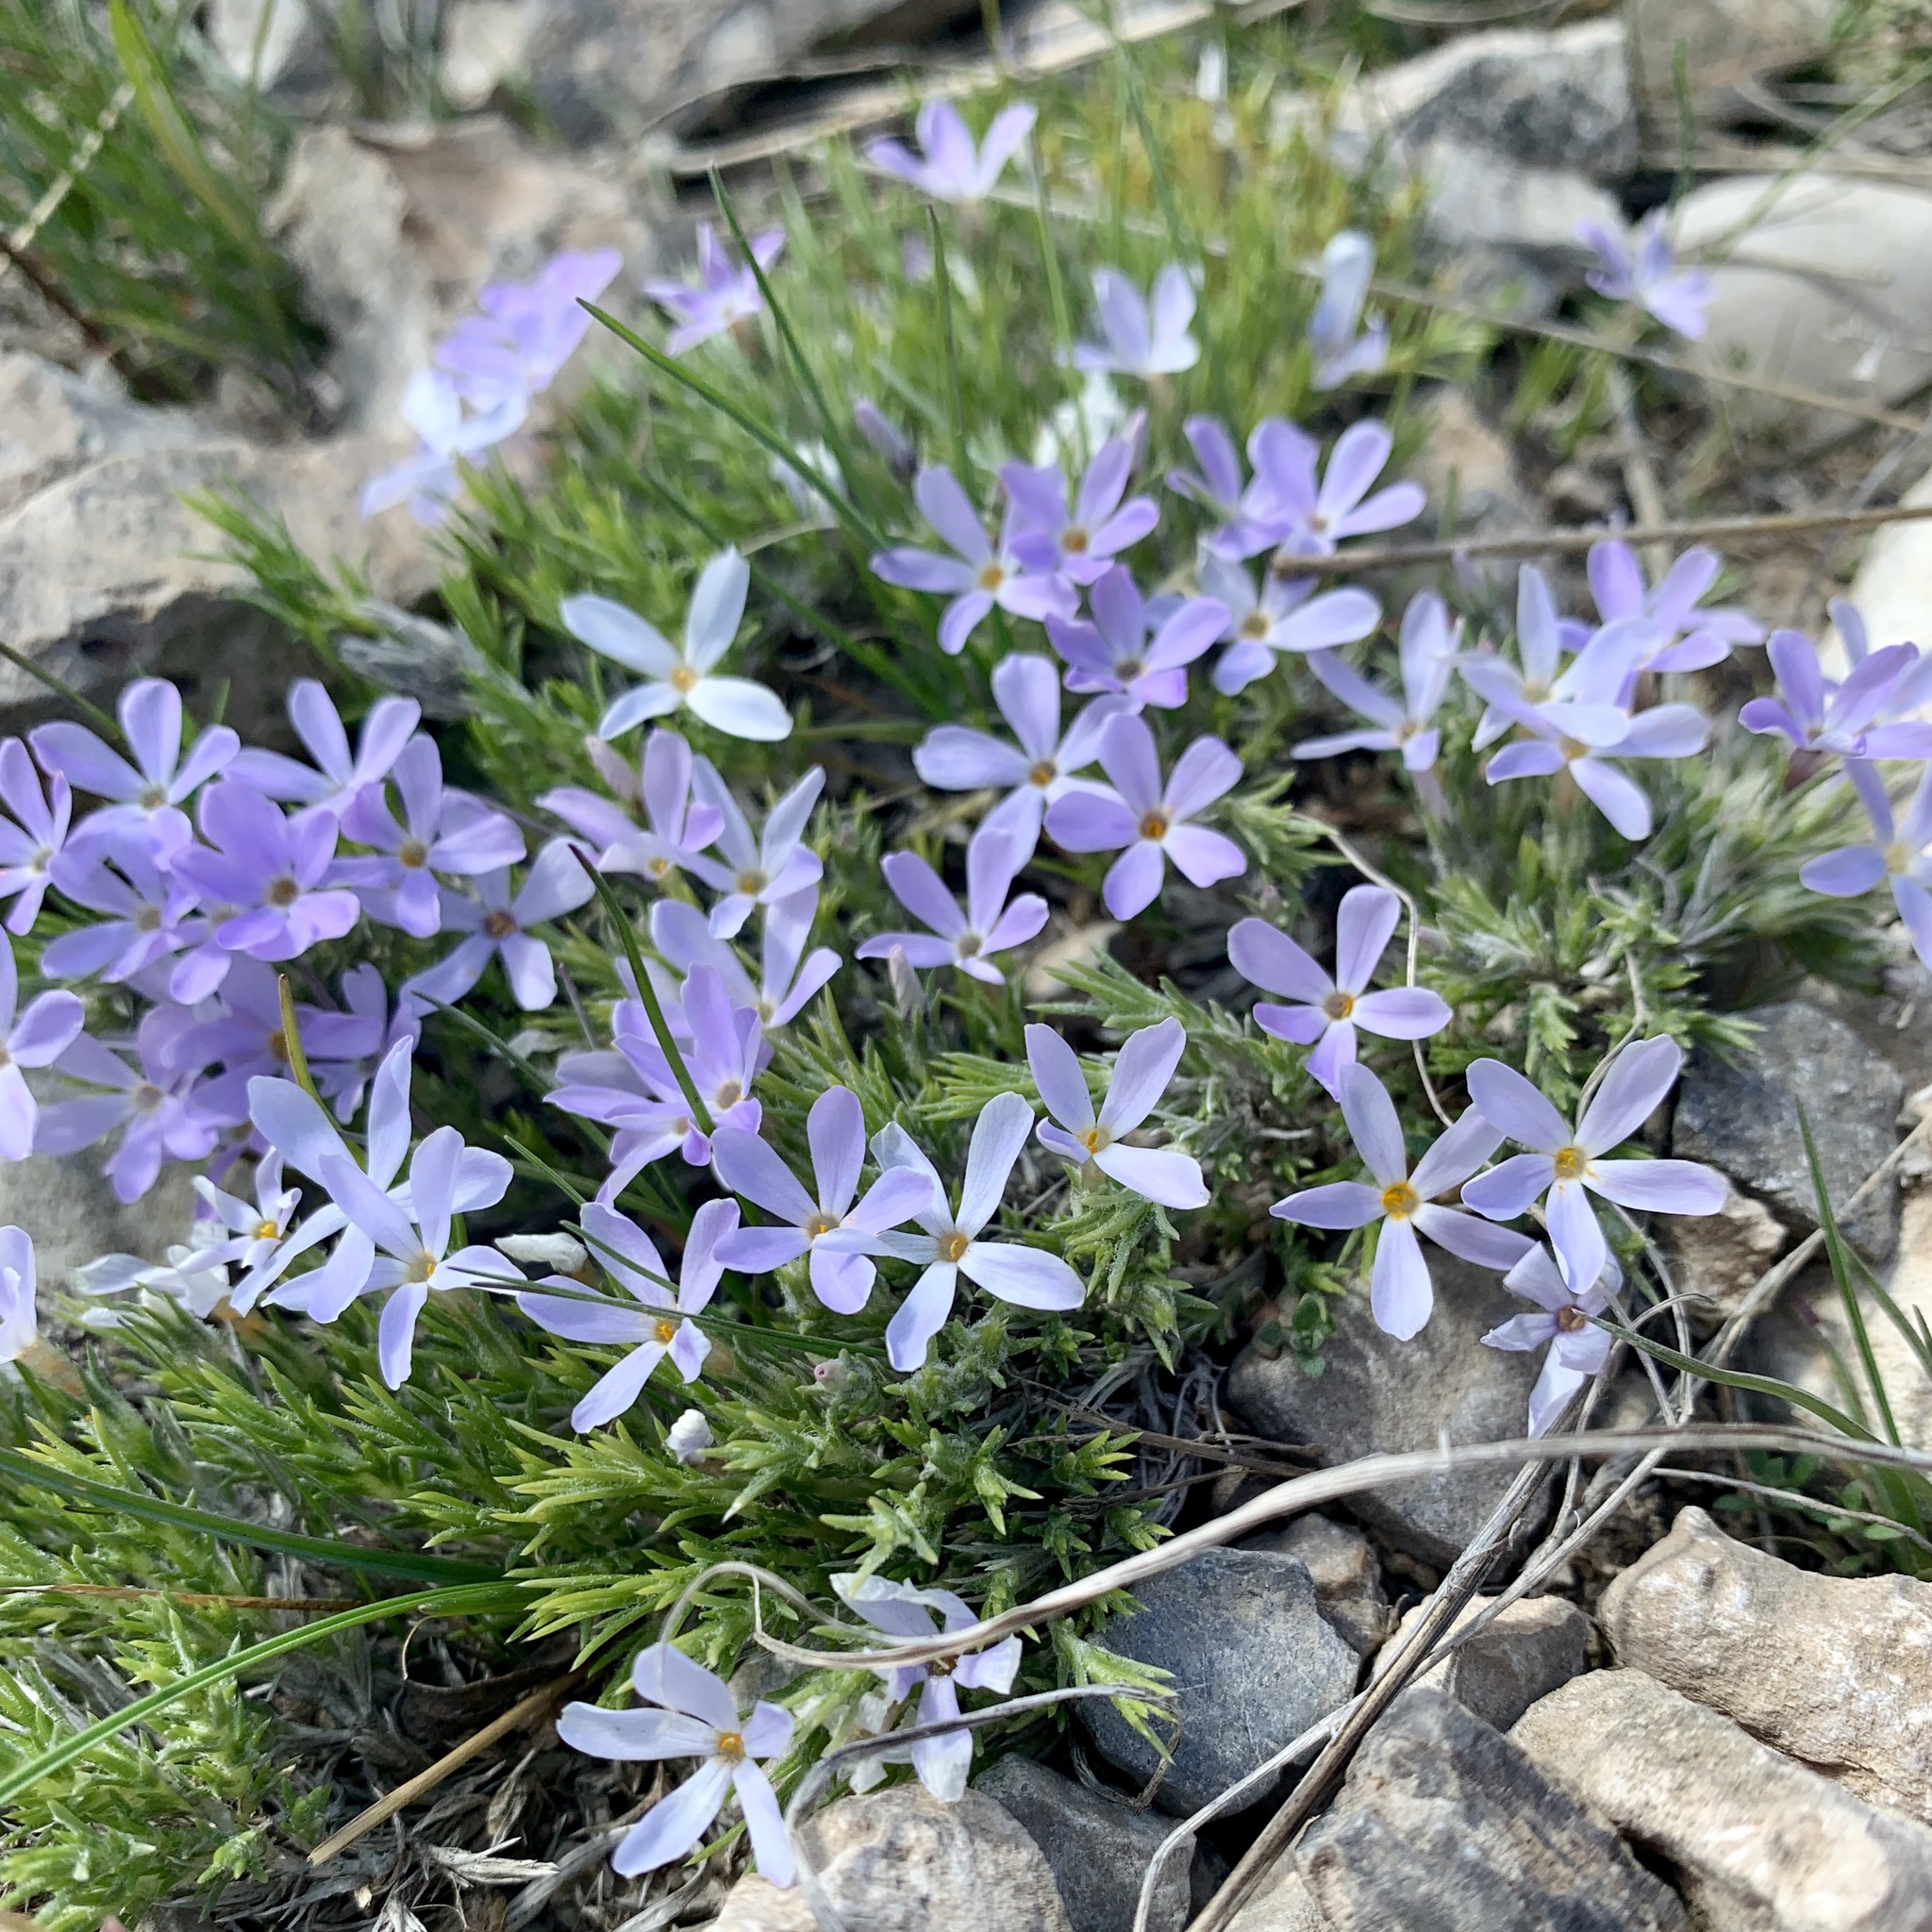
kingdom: Plantae
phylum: Tracheophyta
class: Magnoliopsida
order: Ericales
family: Polemoniaceae
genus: Phlox
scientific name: Phlox hoodii
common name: Moss phlox
